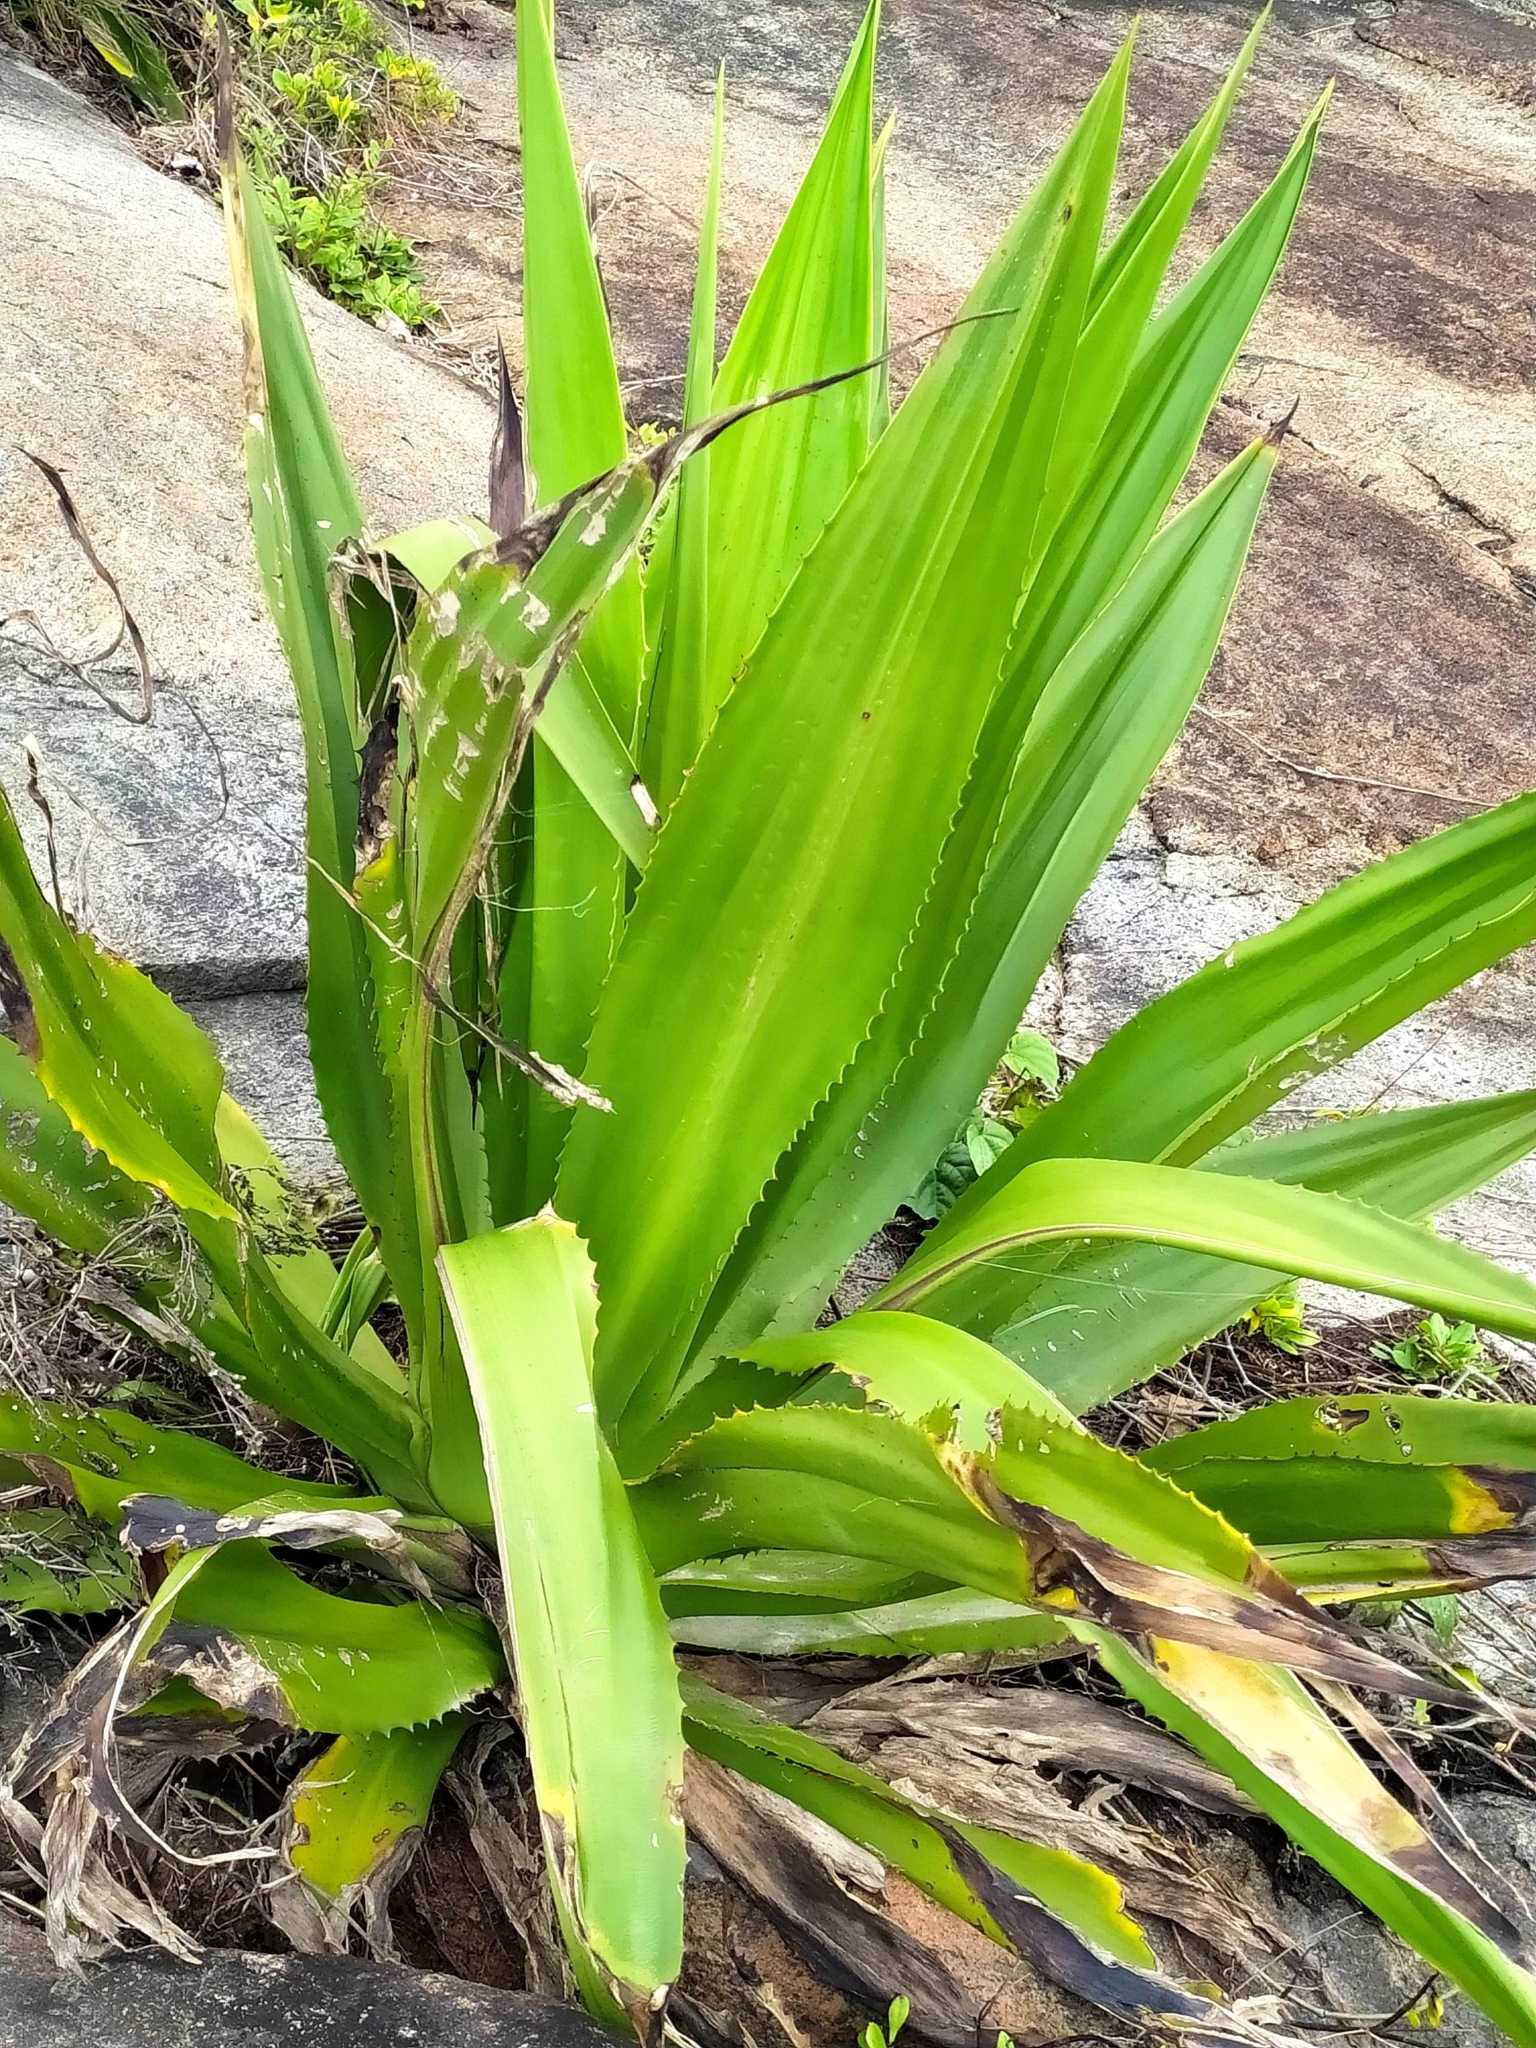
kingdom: Plantae
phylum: Tracheophyta
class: Liliopsida
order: Asparagales
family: Asparagaceae
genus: Furcraea
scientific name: Furcraea foetida
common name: Mauritius hemp
